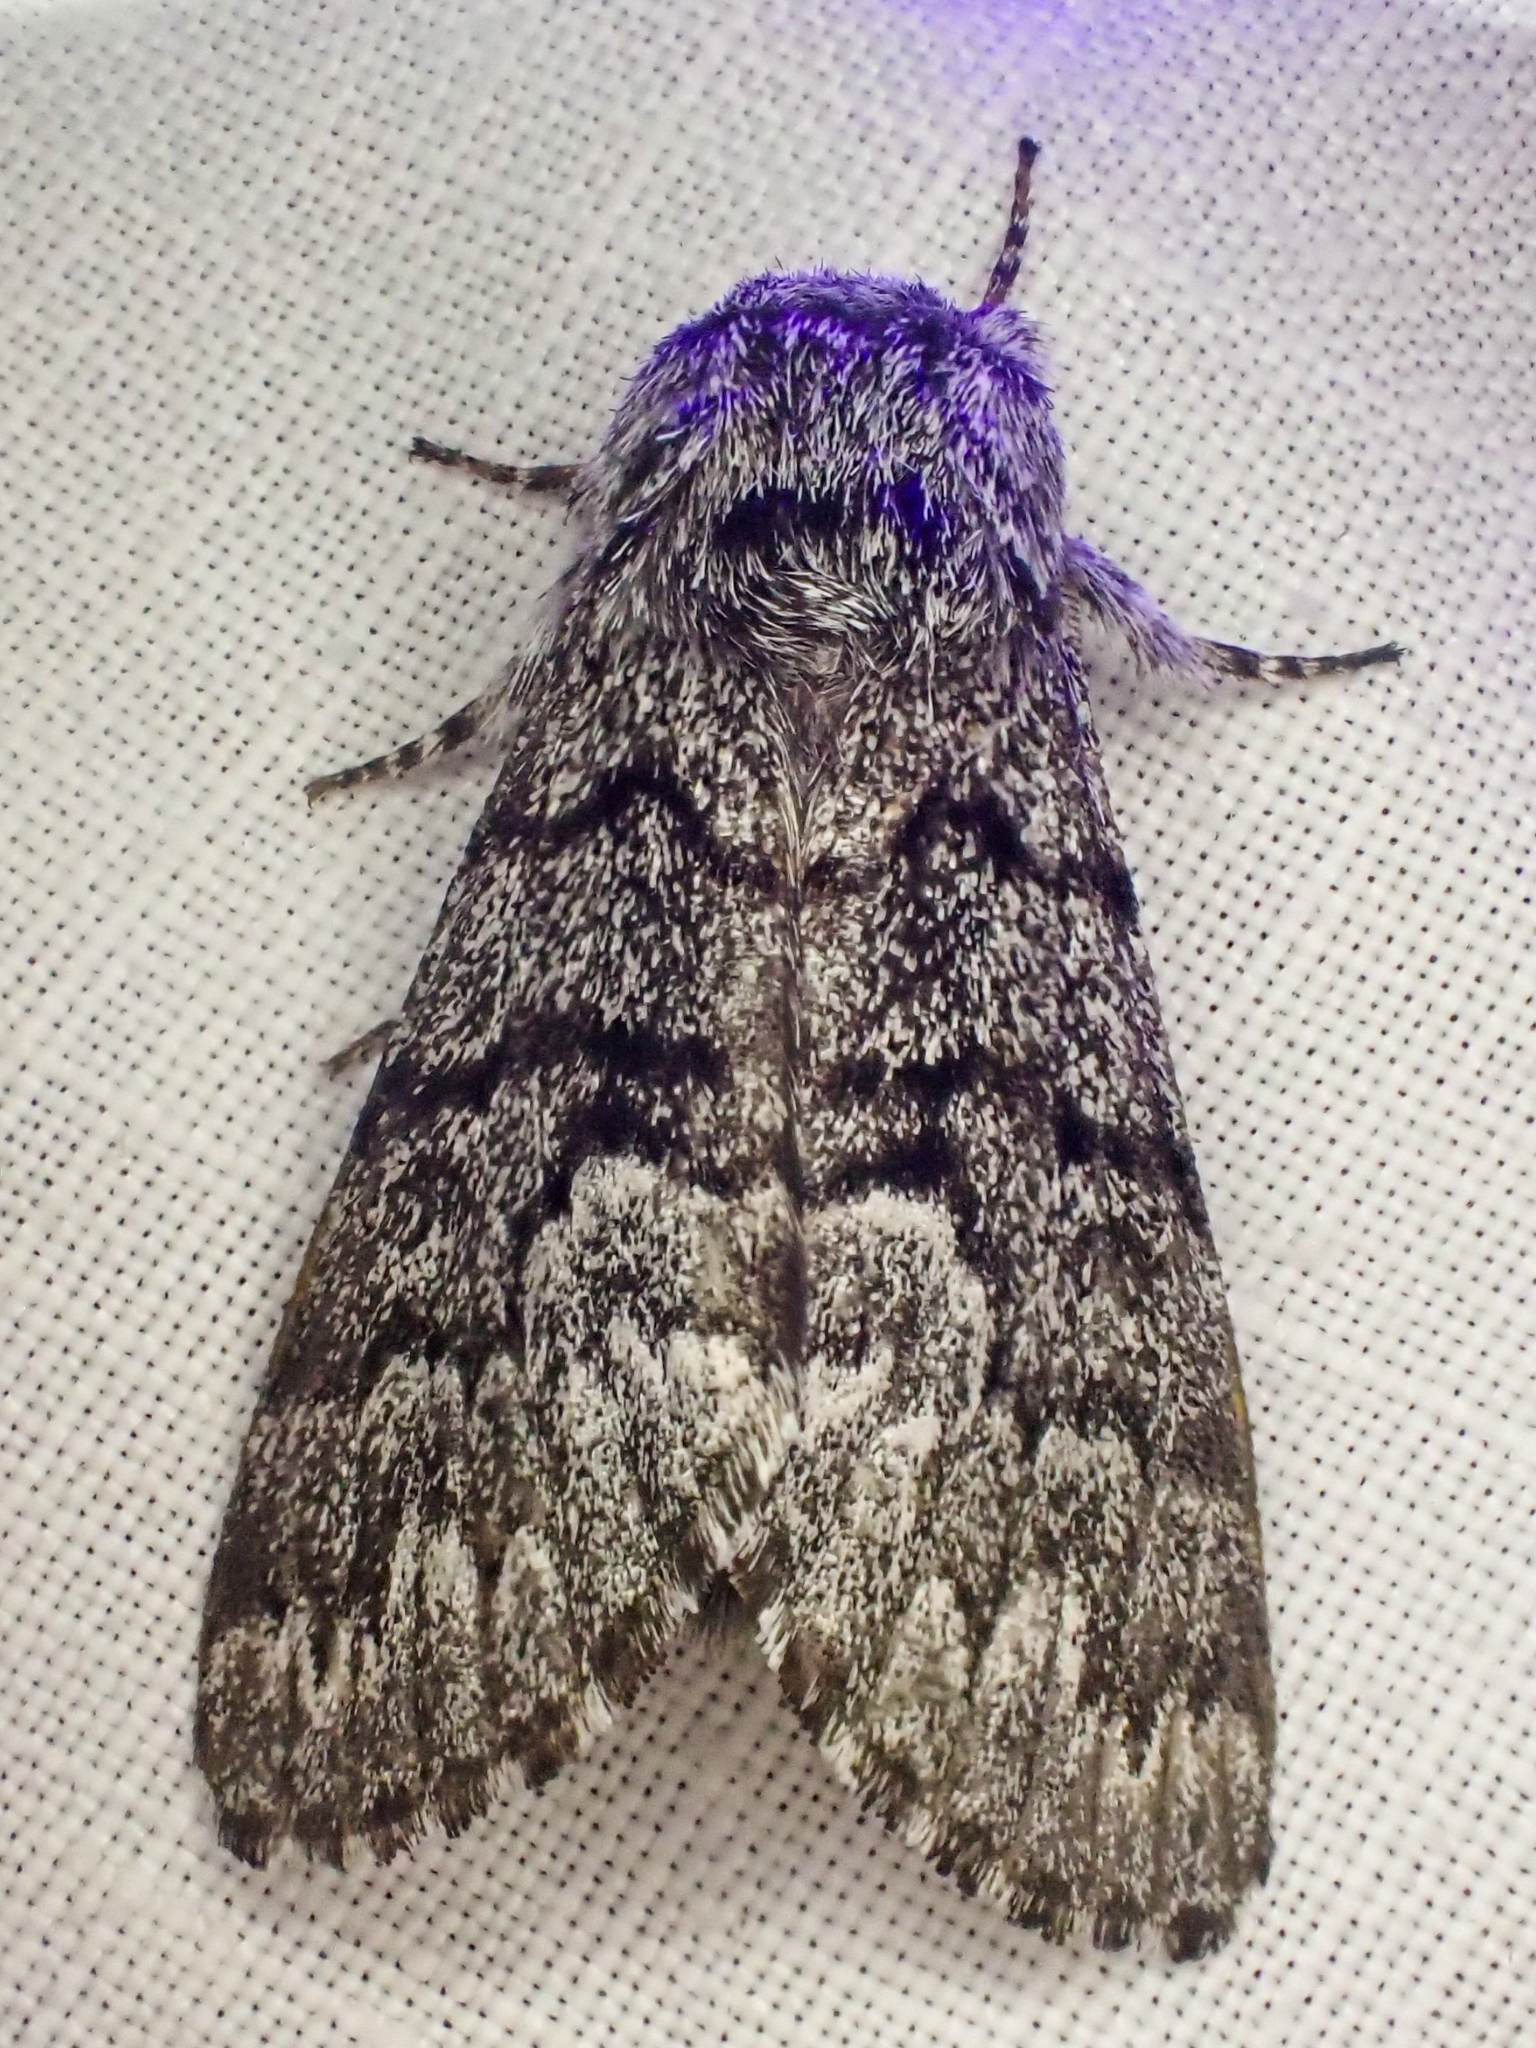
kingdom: Animalia
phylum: Arthropoda
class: Insecta
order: Lepidoptera
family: Noctuidae
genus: Panthea
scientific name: Panthea virginarius
